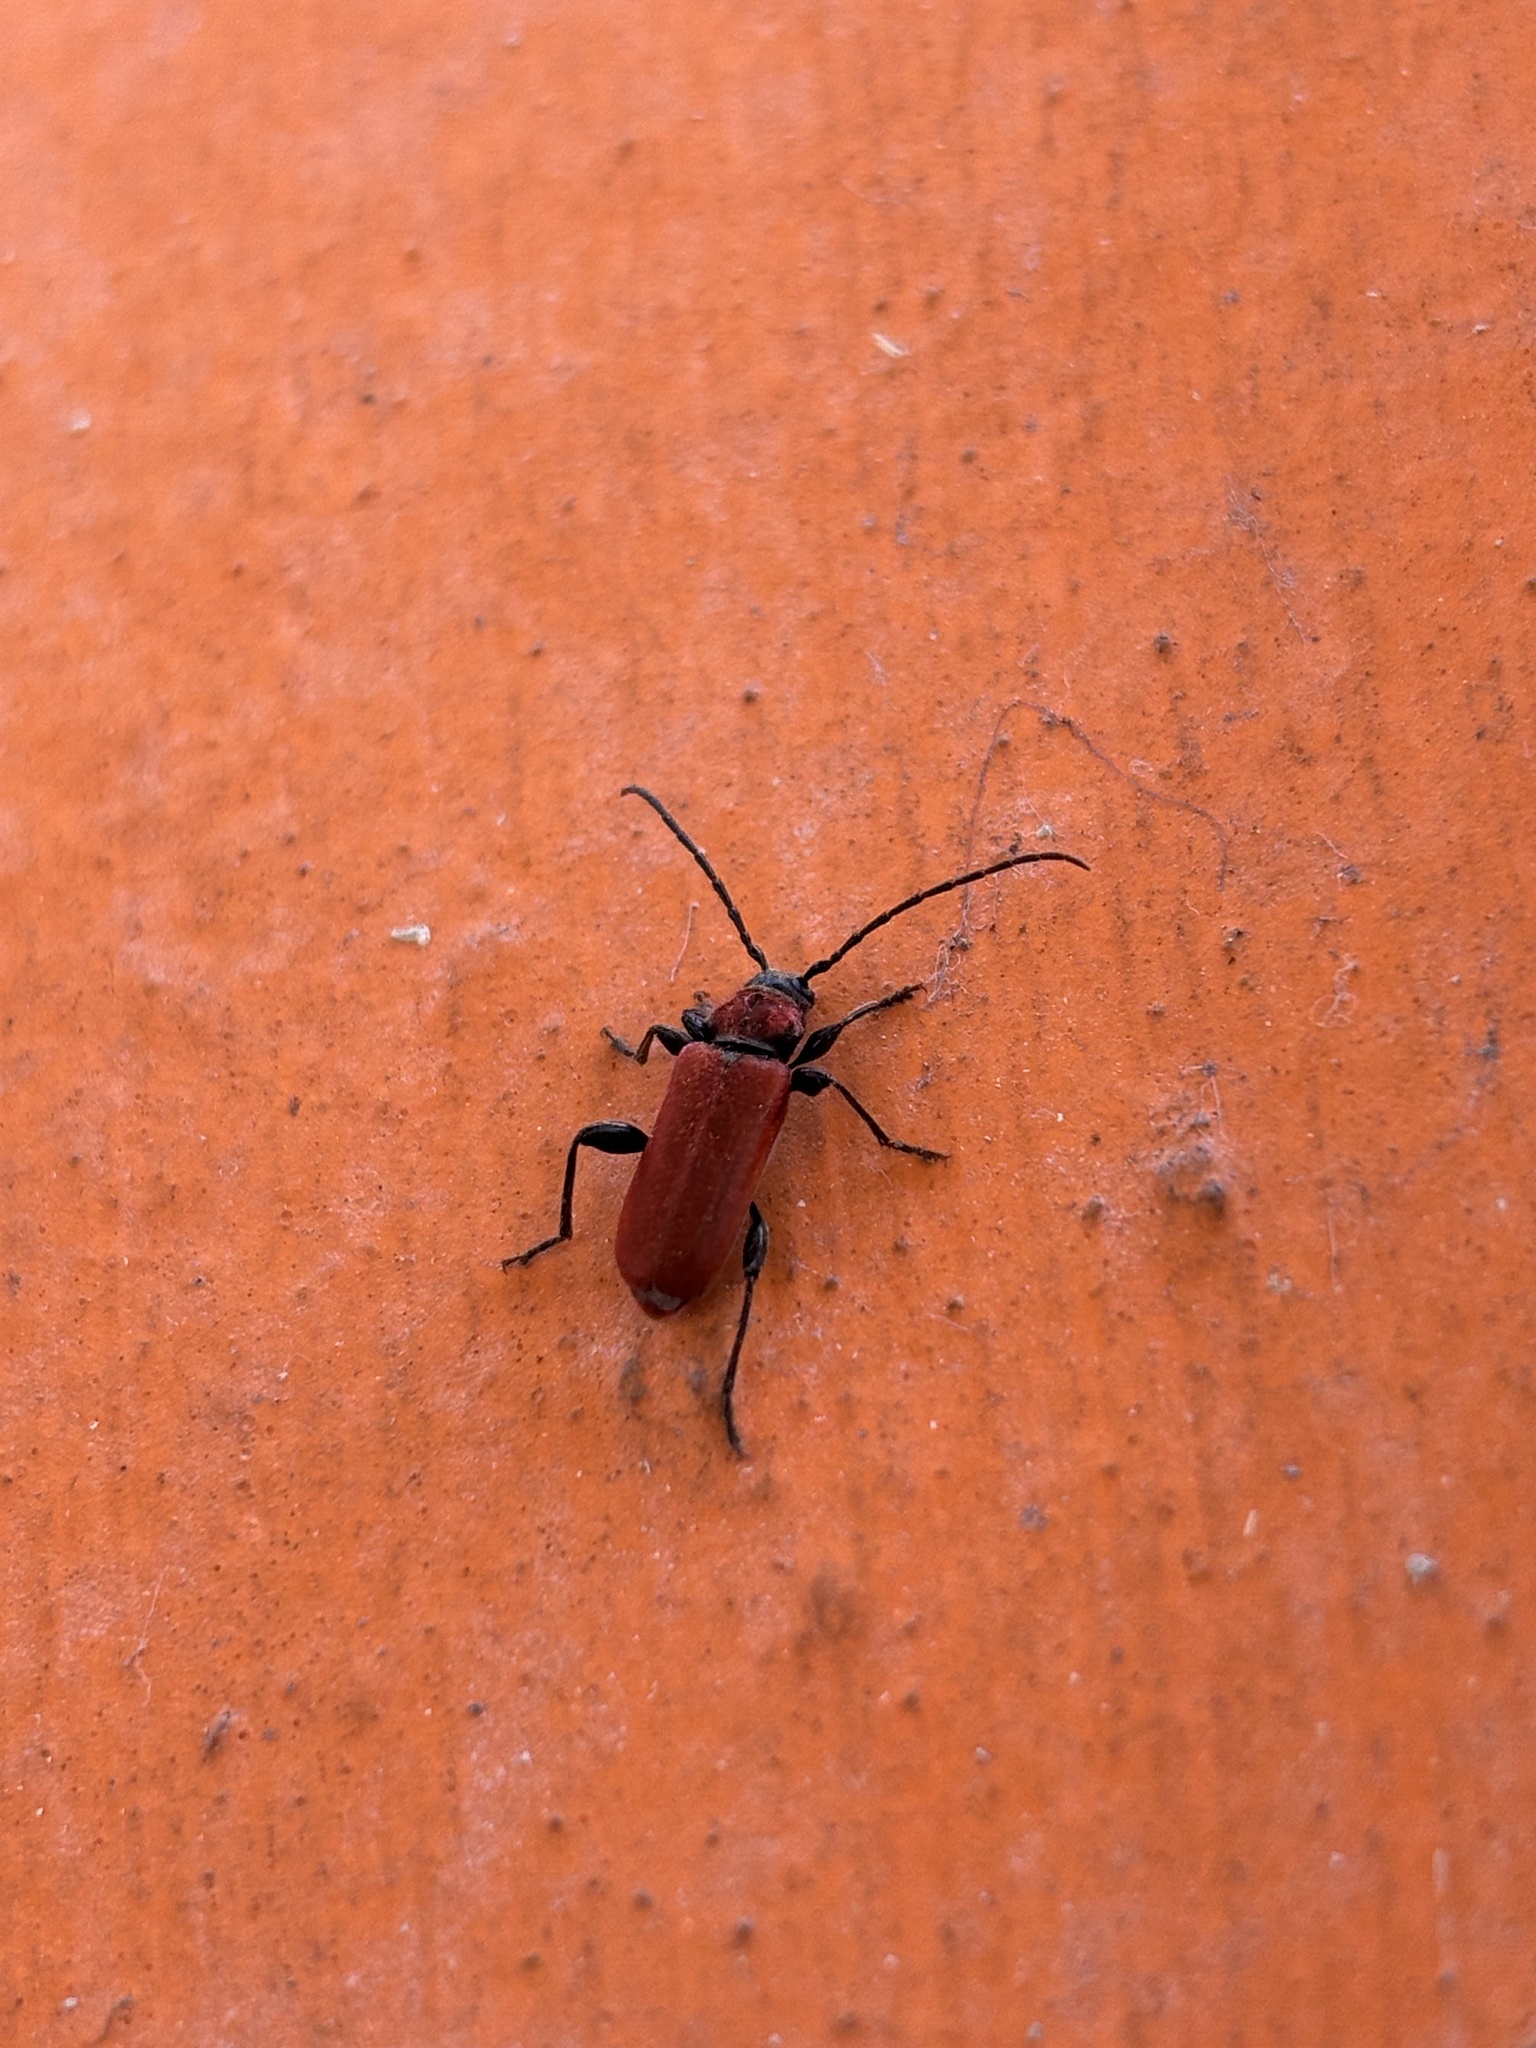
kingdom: Animalia
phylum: Arthropoda
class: Insecta
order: Coleoptera
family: Cerambycidae
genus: Pyrrhidium
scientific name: Pyrrhidium sanguineum
